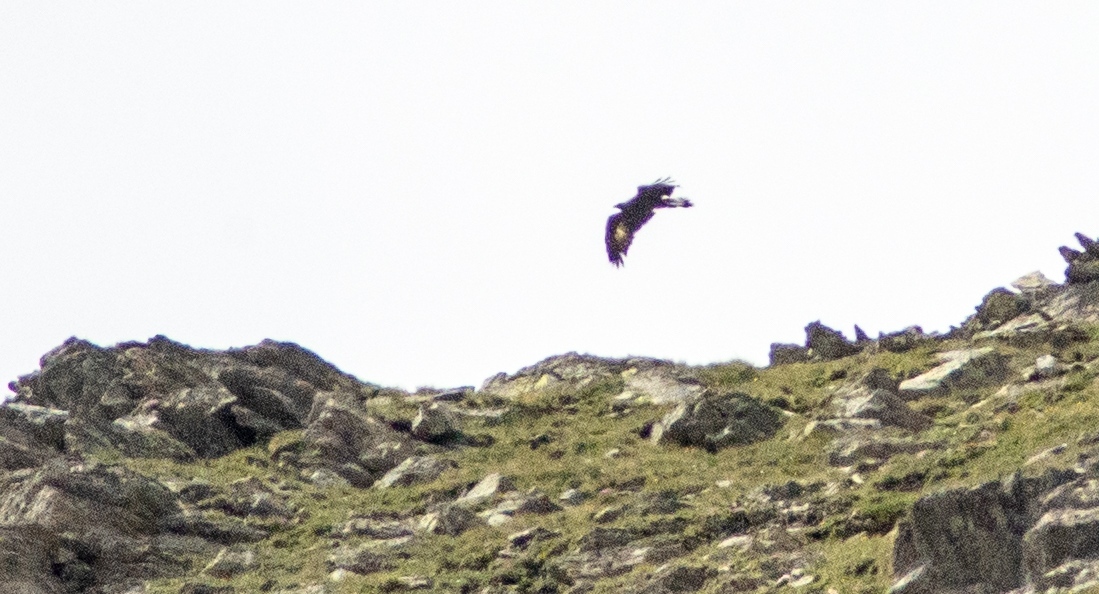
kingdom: Animalia
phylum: Chordata
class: Aves
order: Accipitriformes
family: Accipitridae
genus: Aquila
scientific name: Aquila chrysaetos
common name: Golden eagle
